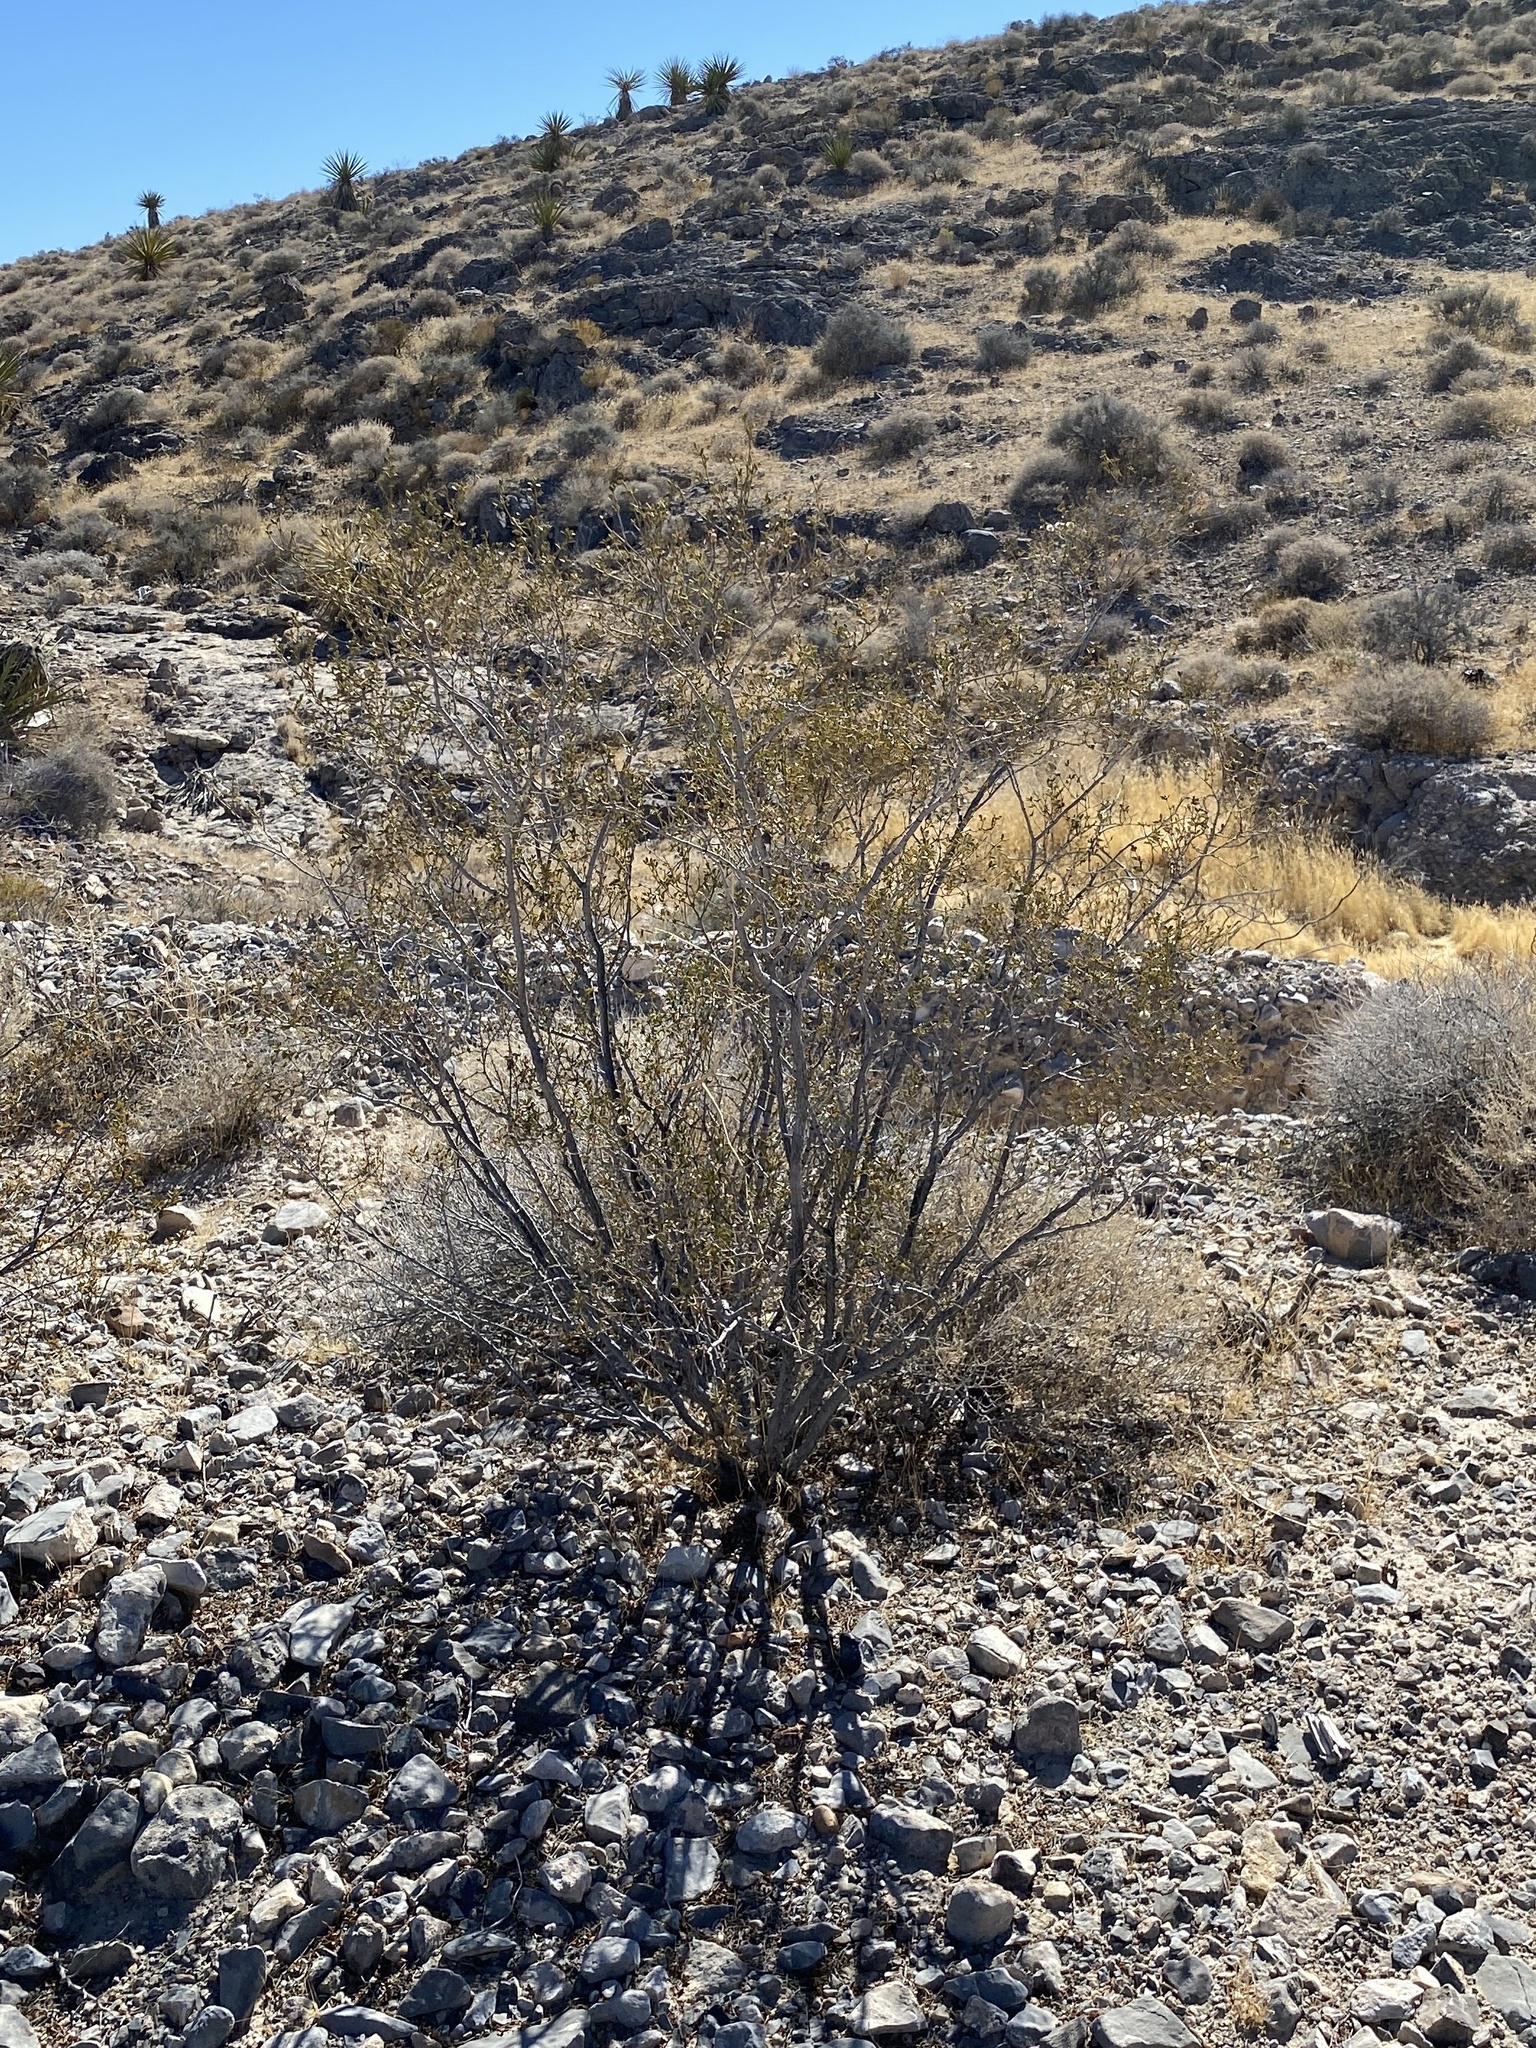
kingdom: Plantae
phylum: Tracheophyta
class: Magnoliopsida
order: Zygophyllales
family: Zygophyllaceae
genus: Larrea
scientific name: Larrea tridentata
